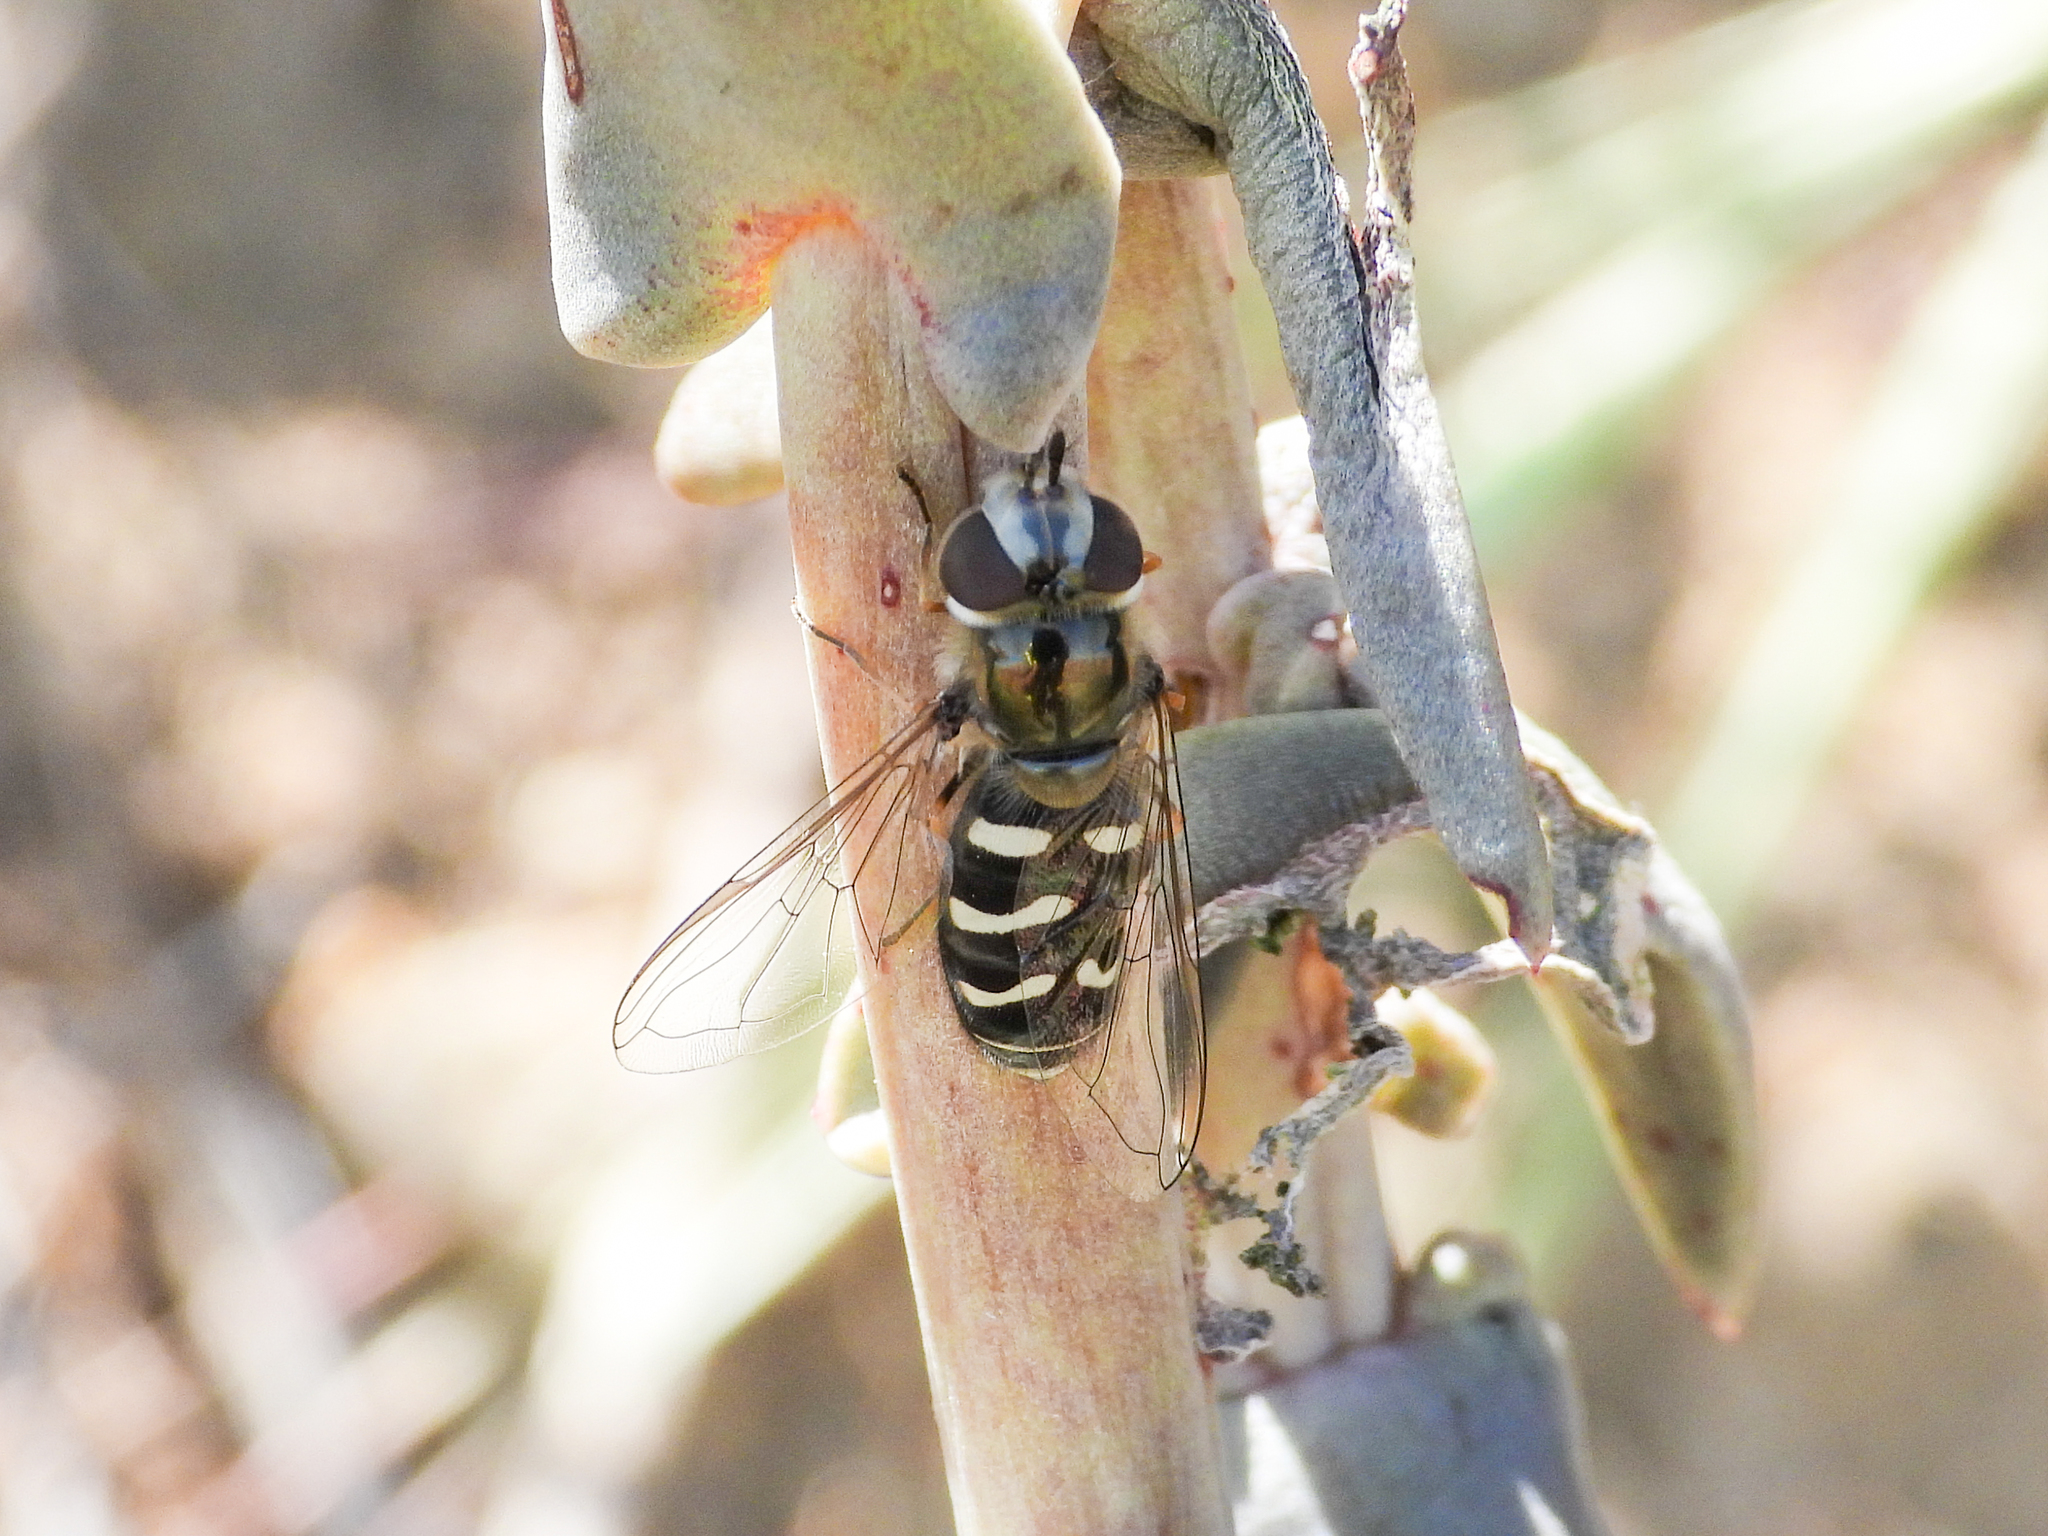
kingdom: Animalia
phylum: Arthropoda
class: Insecta
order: Diptera
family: Syrphidae
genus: Scaeva
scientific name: Scaeva affinis
